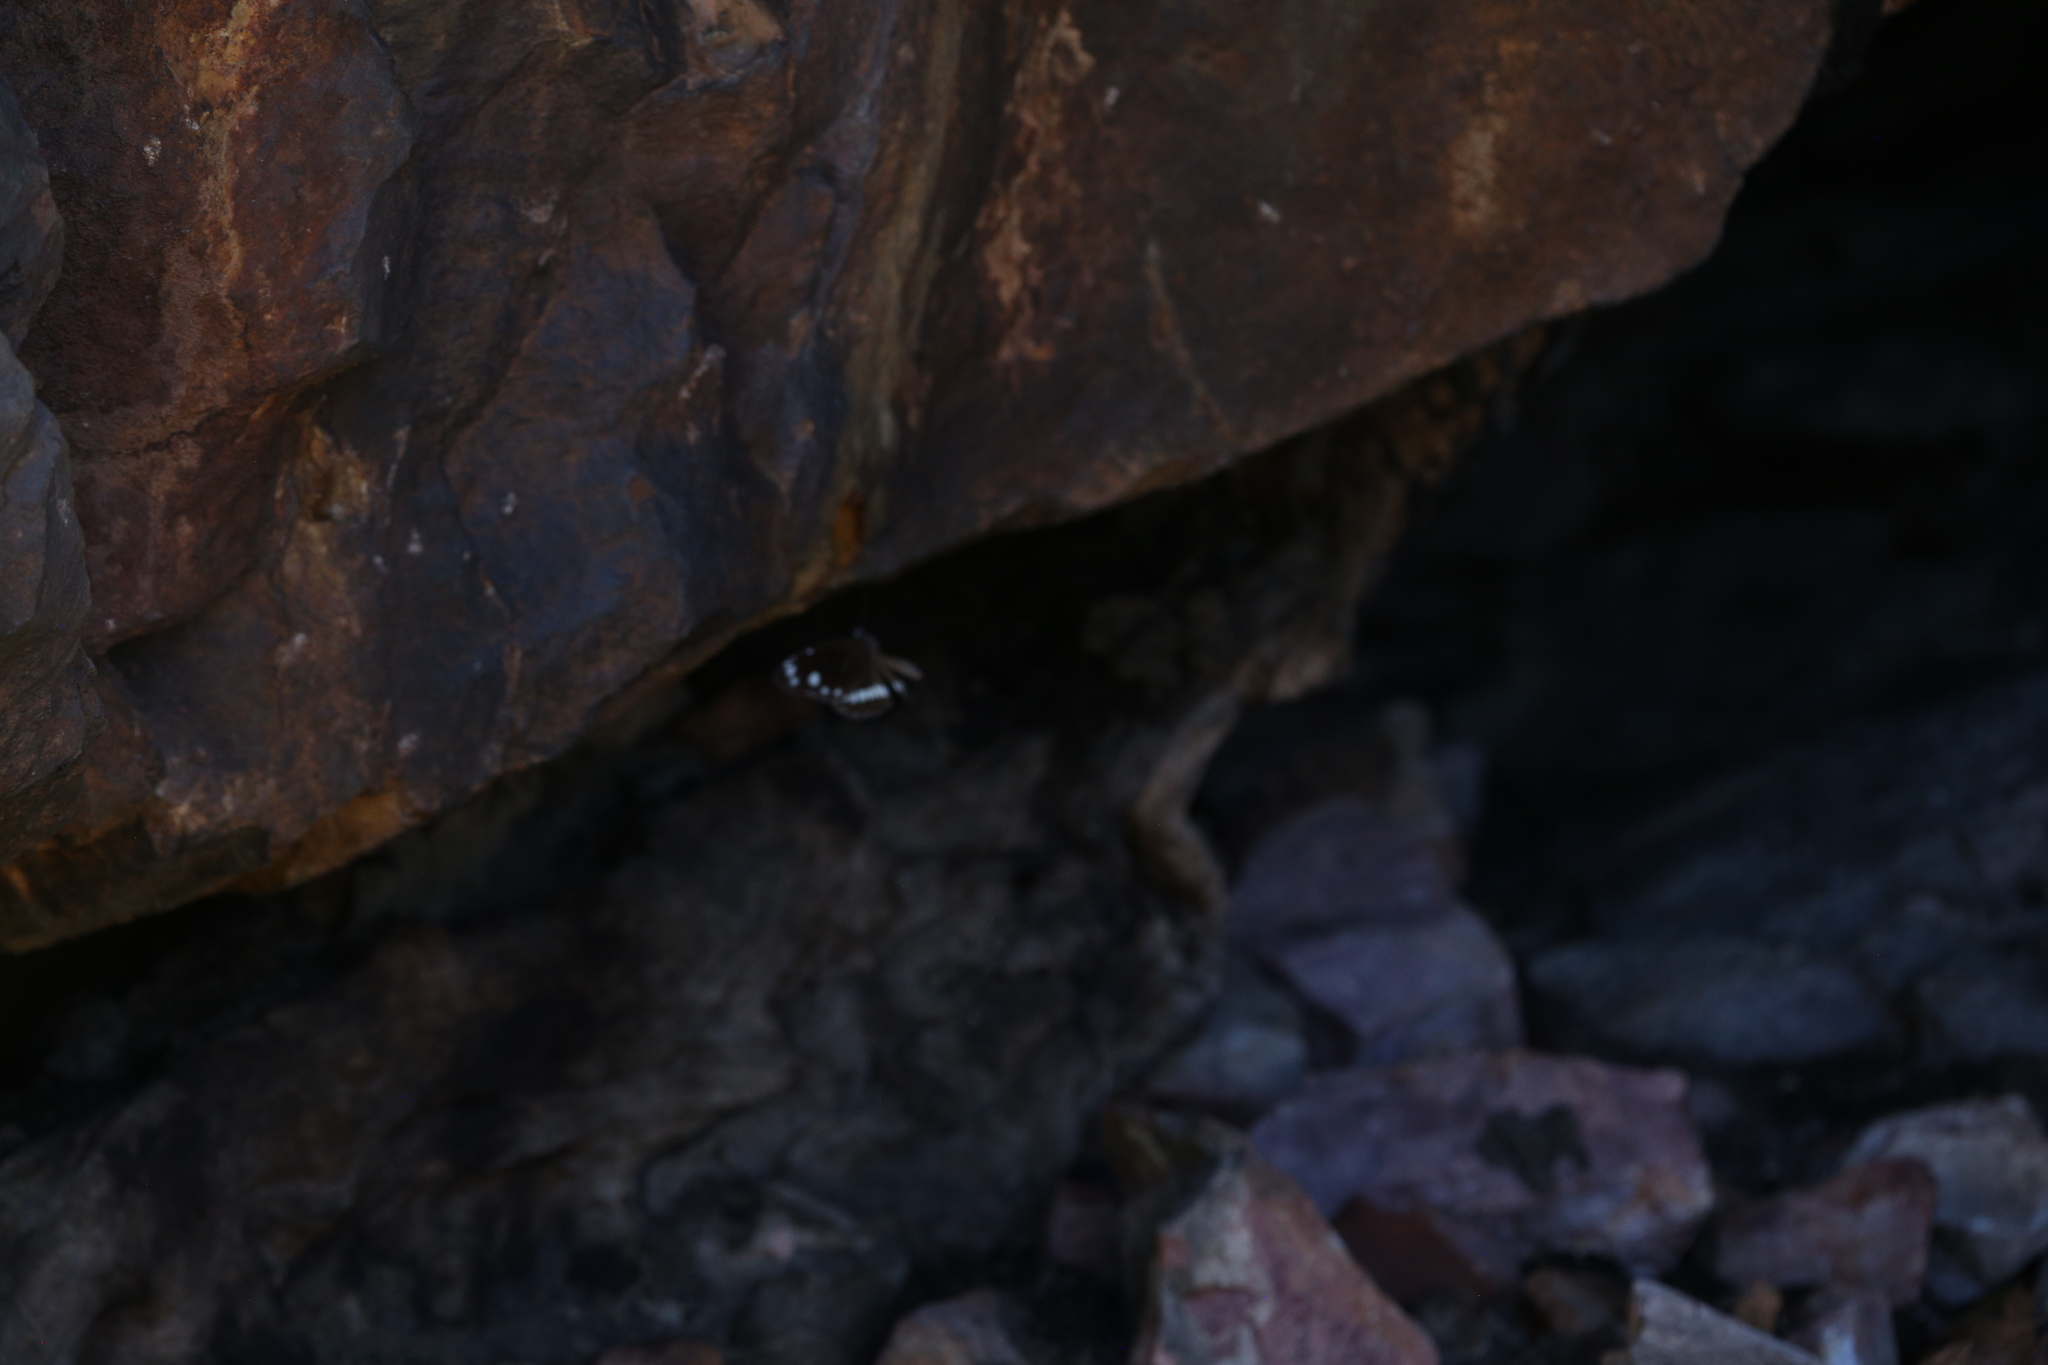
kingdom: Animalia
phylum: Arthropoda
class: Insecta
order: Lepidoptera
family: Nymphalidae
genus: Euploea
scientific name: Euploea core
